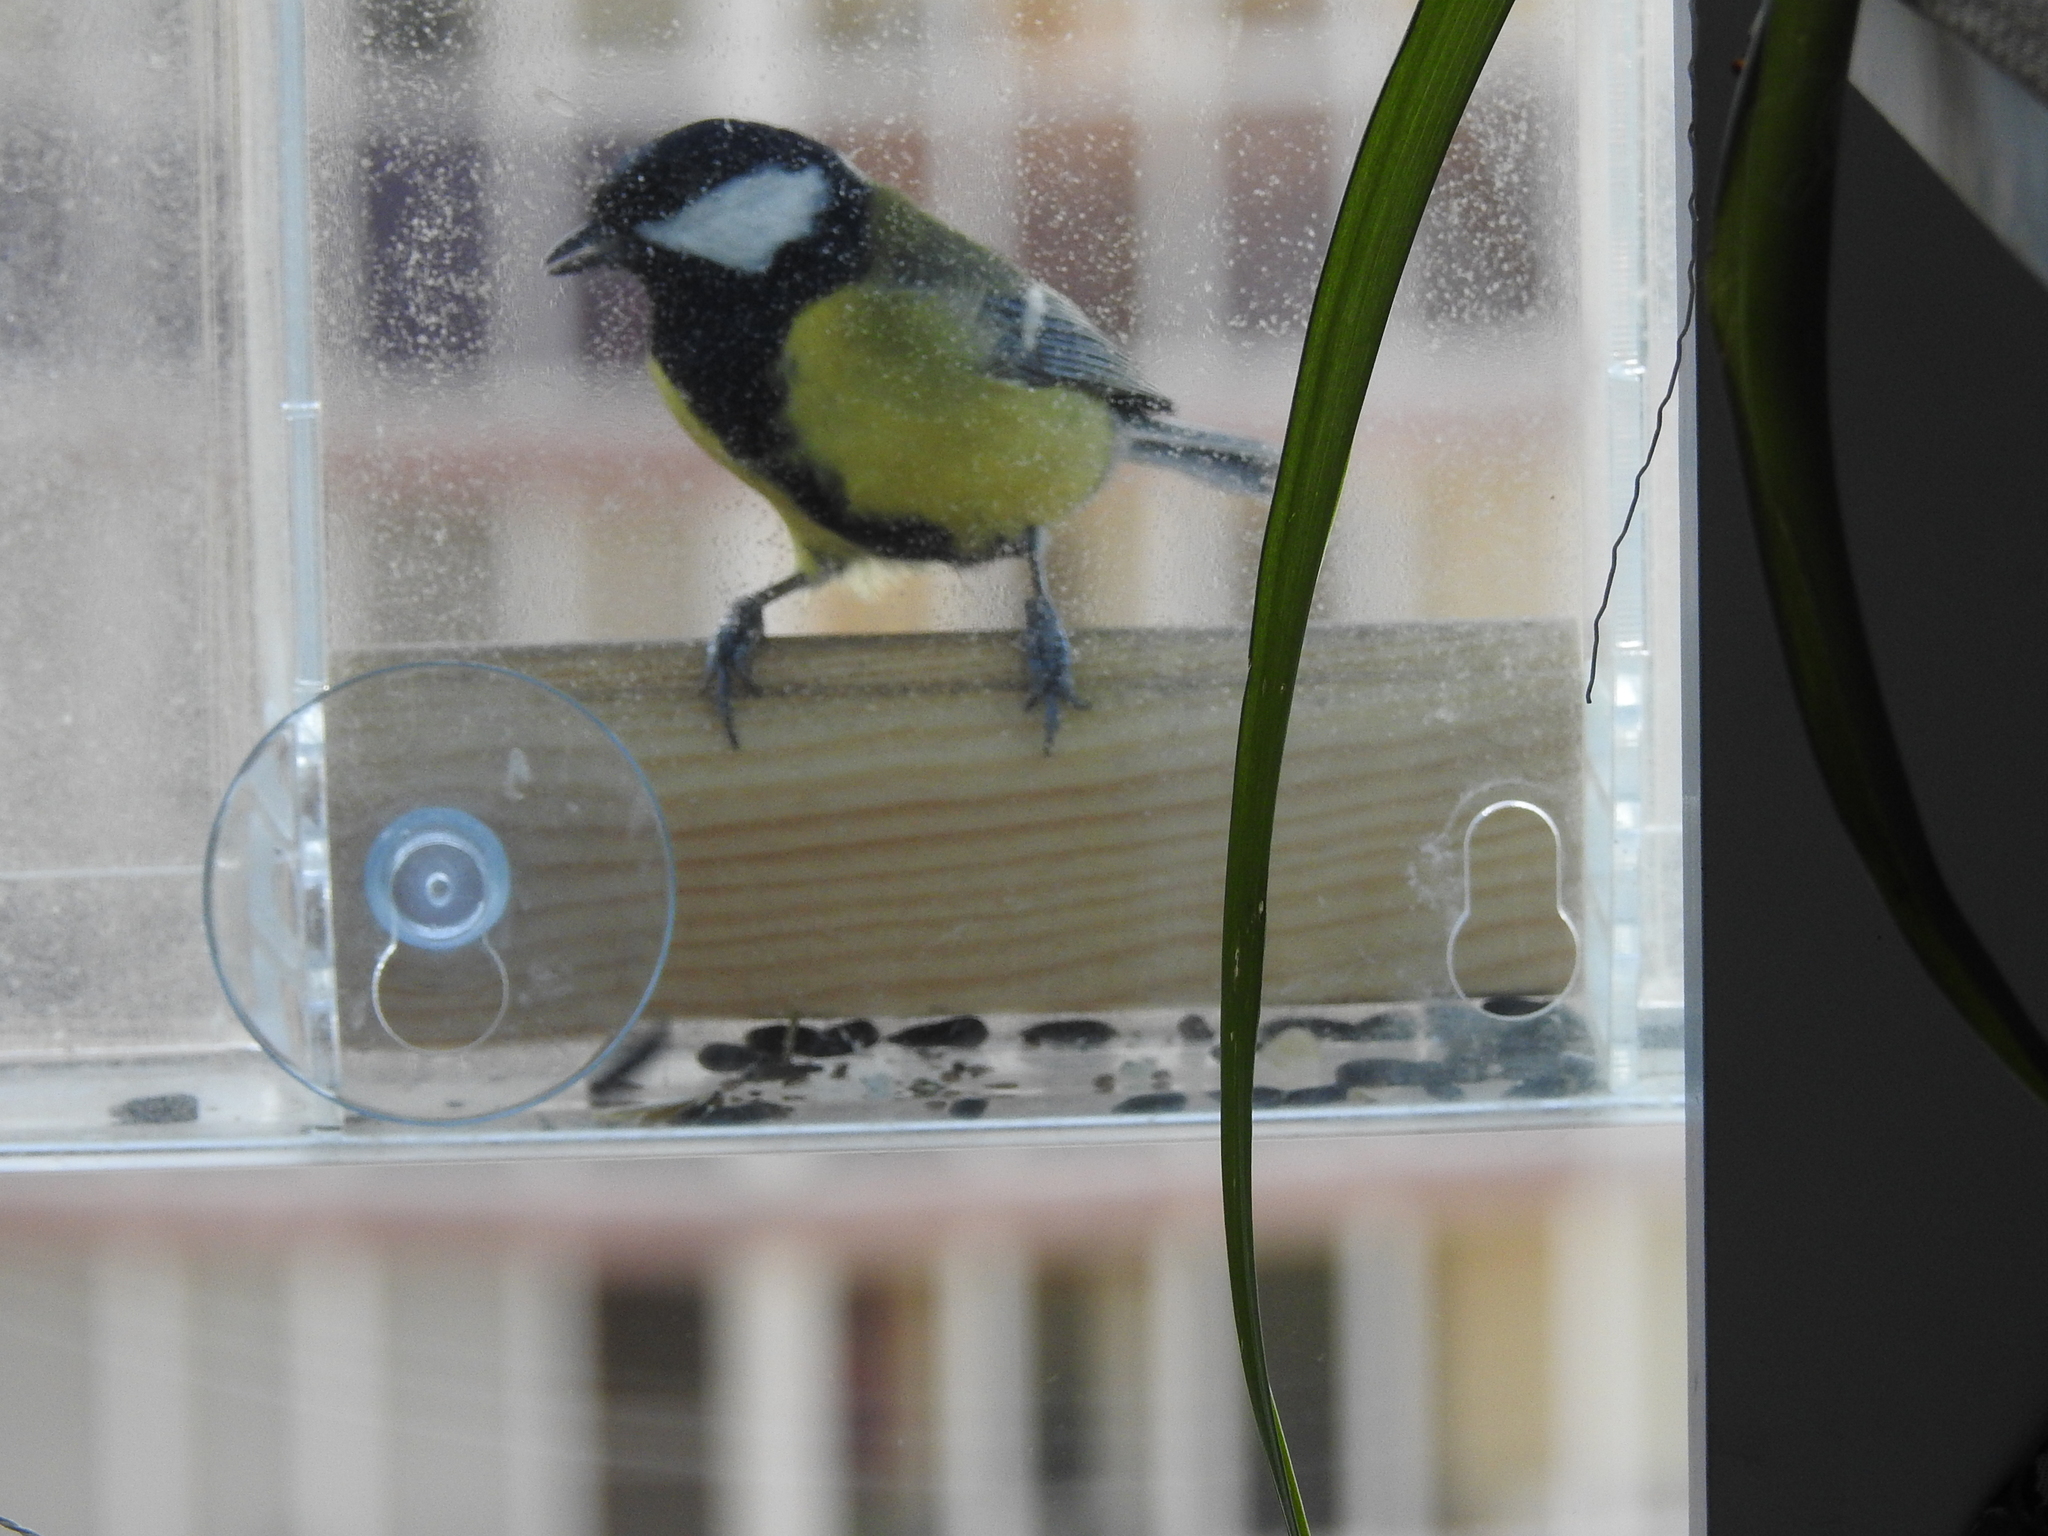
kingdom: Animalia
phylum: Chordata
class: Aves
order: Passeriformes
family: Paridae
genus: Parus
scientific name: Parus major
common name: Great tit
